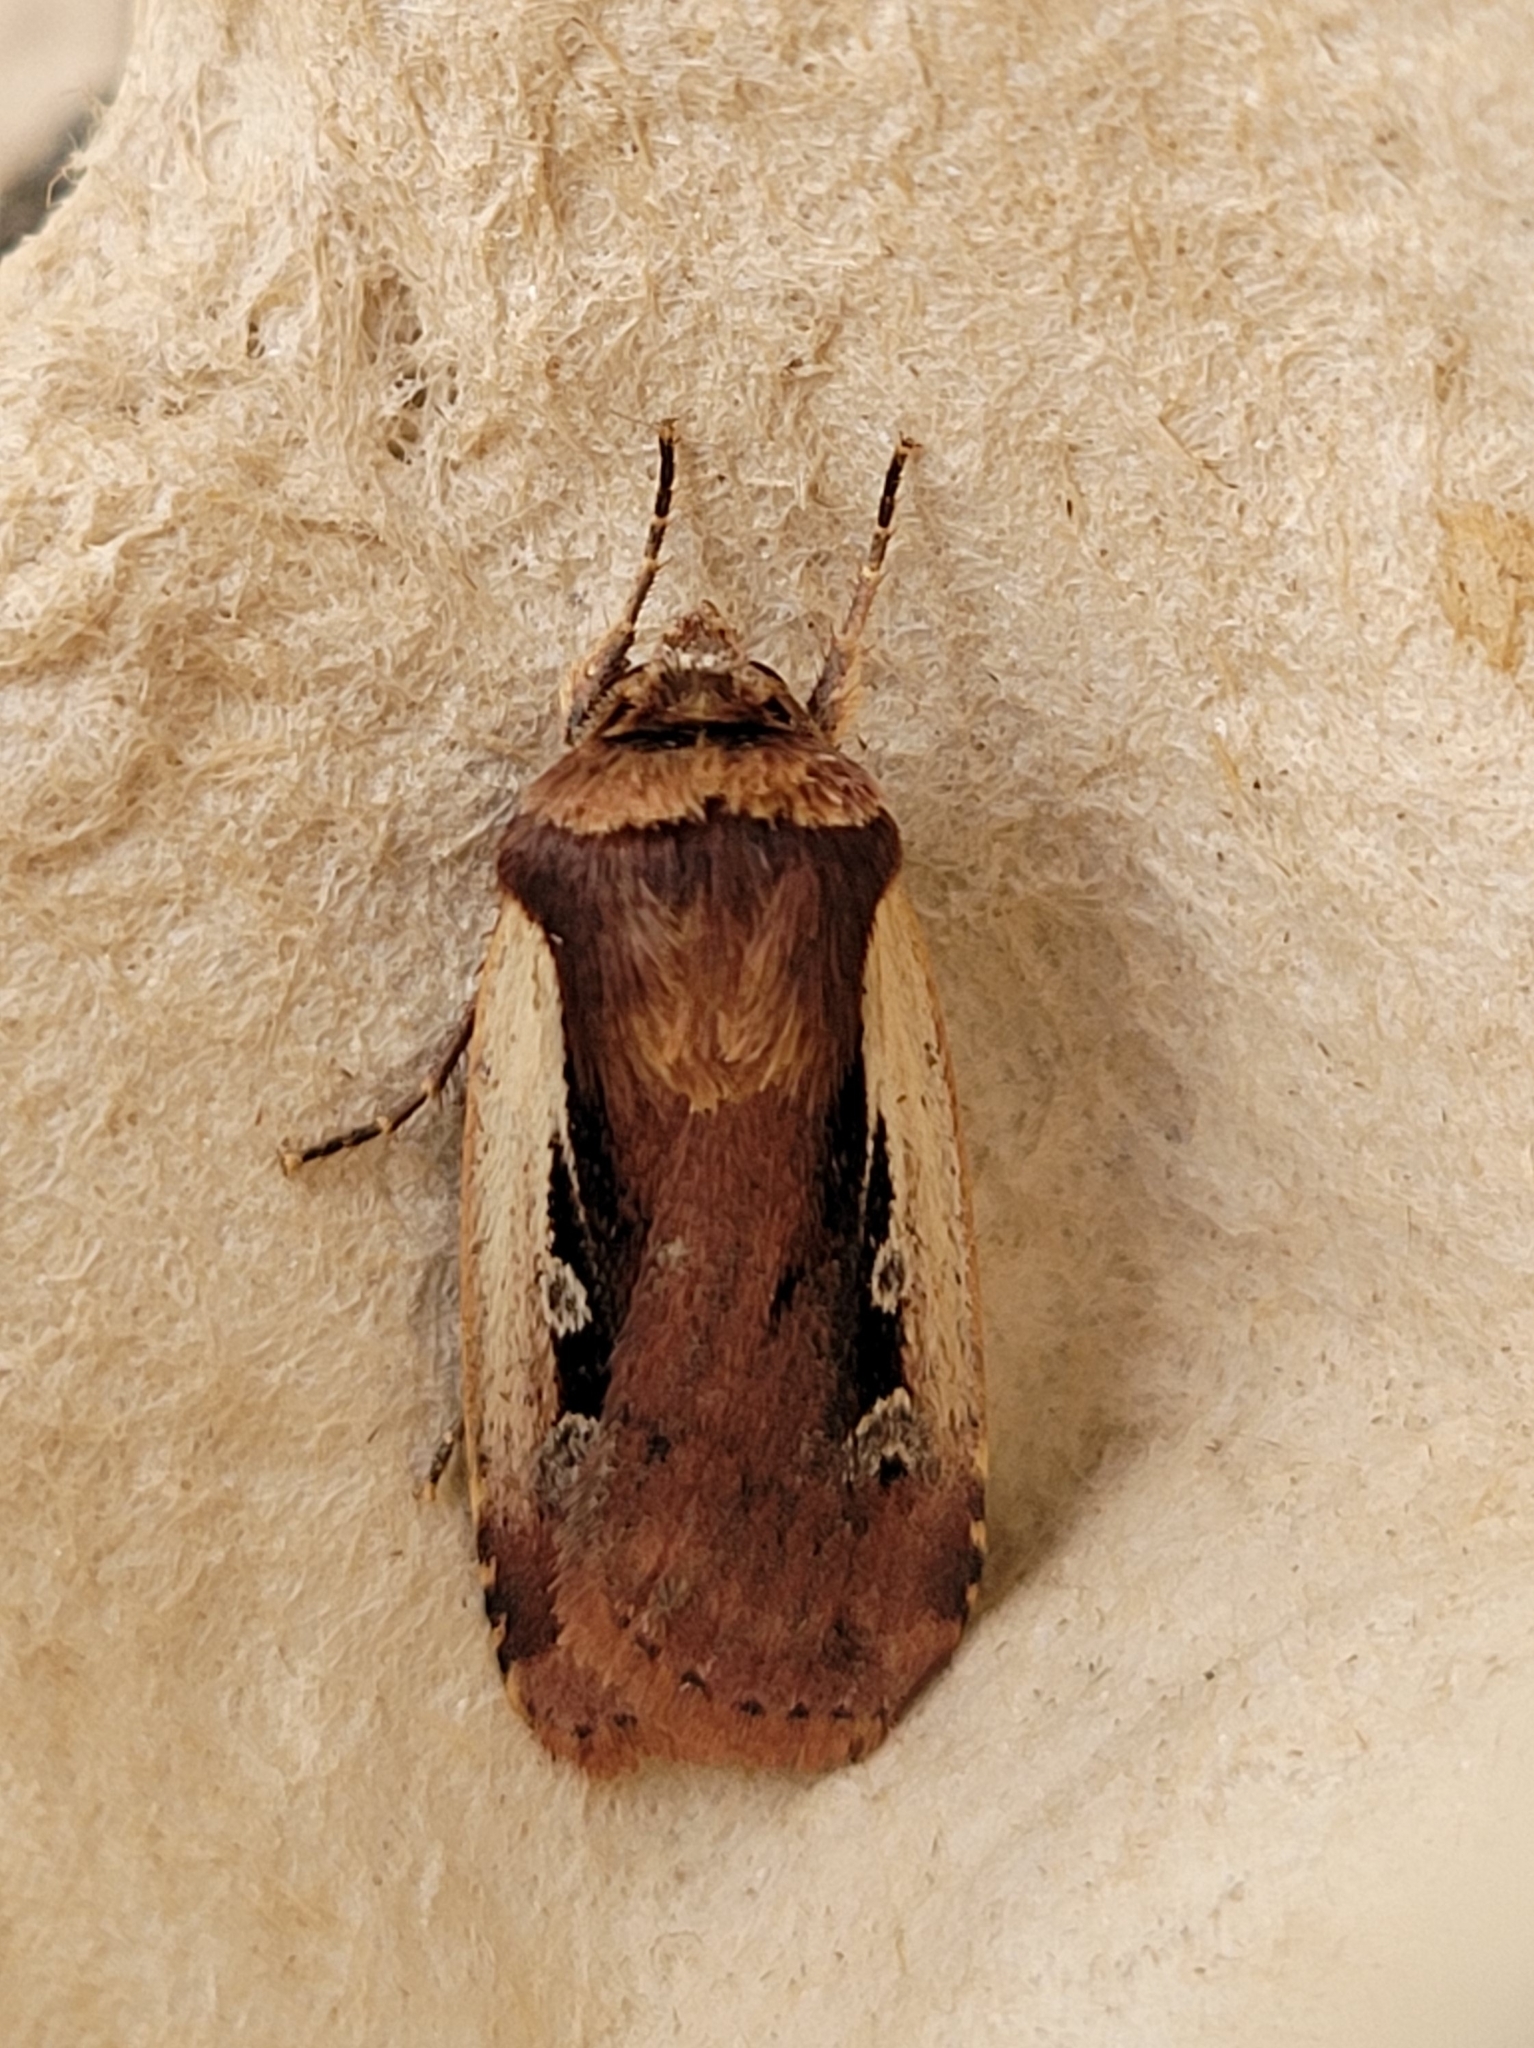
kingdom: Animalia
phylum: Arthropoda
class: Insecta
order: Lepidoptera
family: Noctuidae
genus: Ochropleura
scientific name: Ochropleura plecta
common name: Flame shoulder
